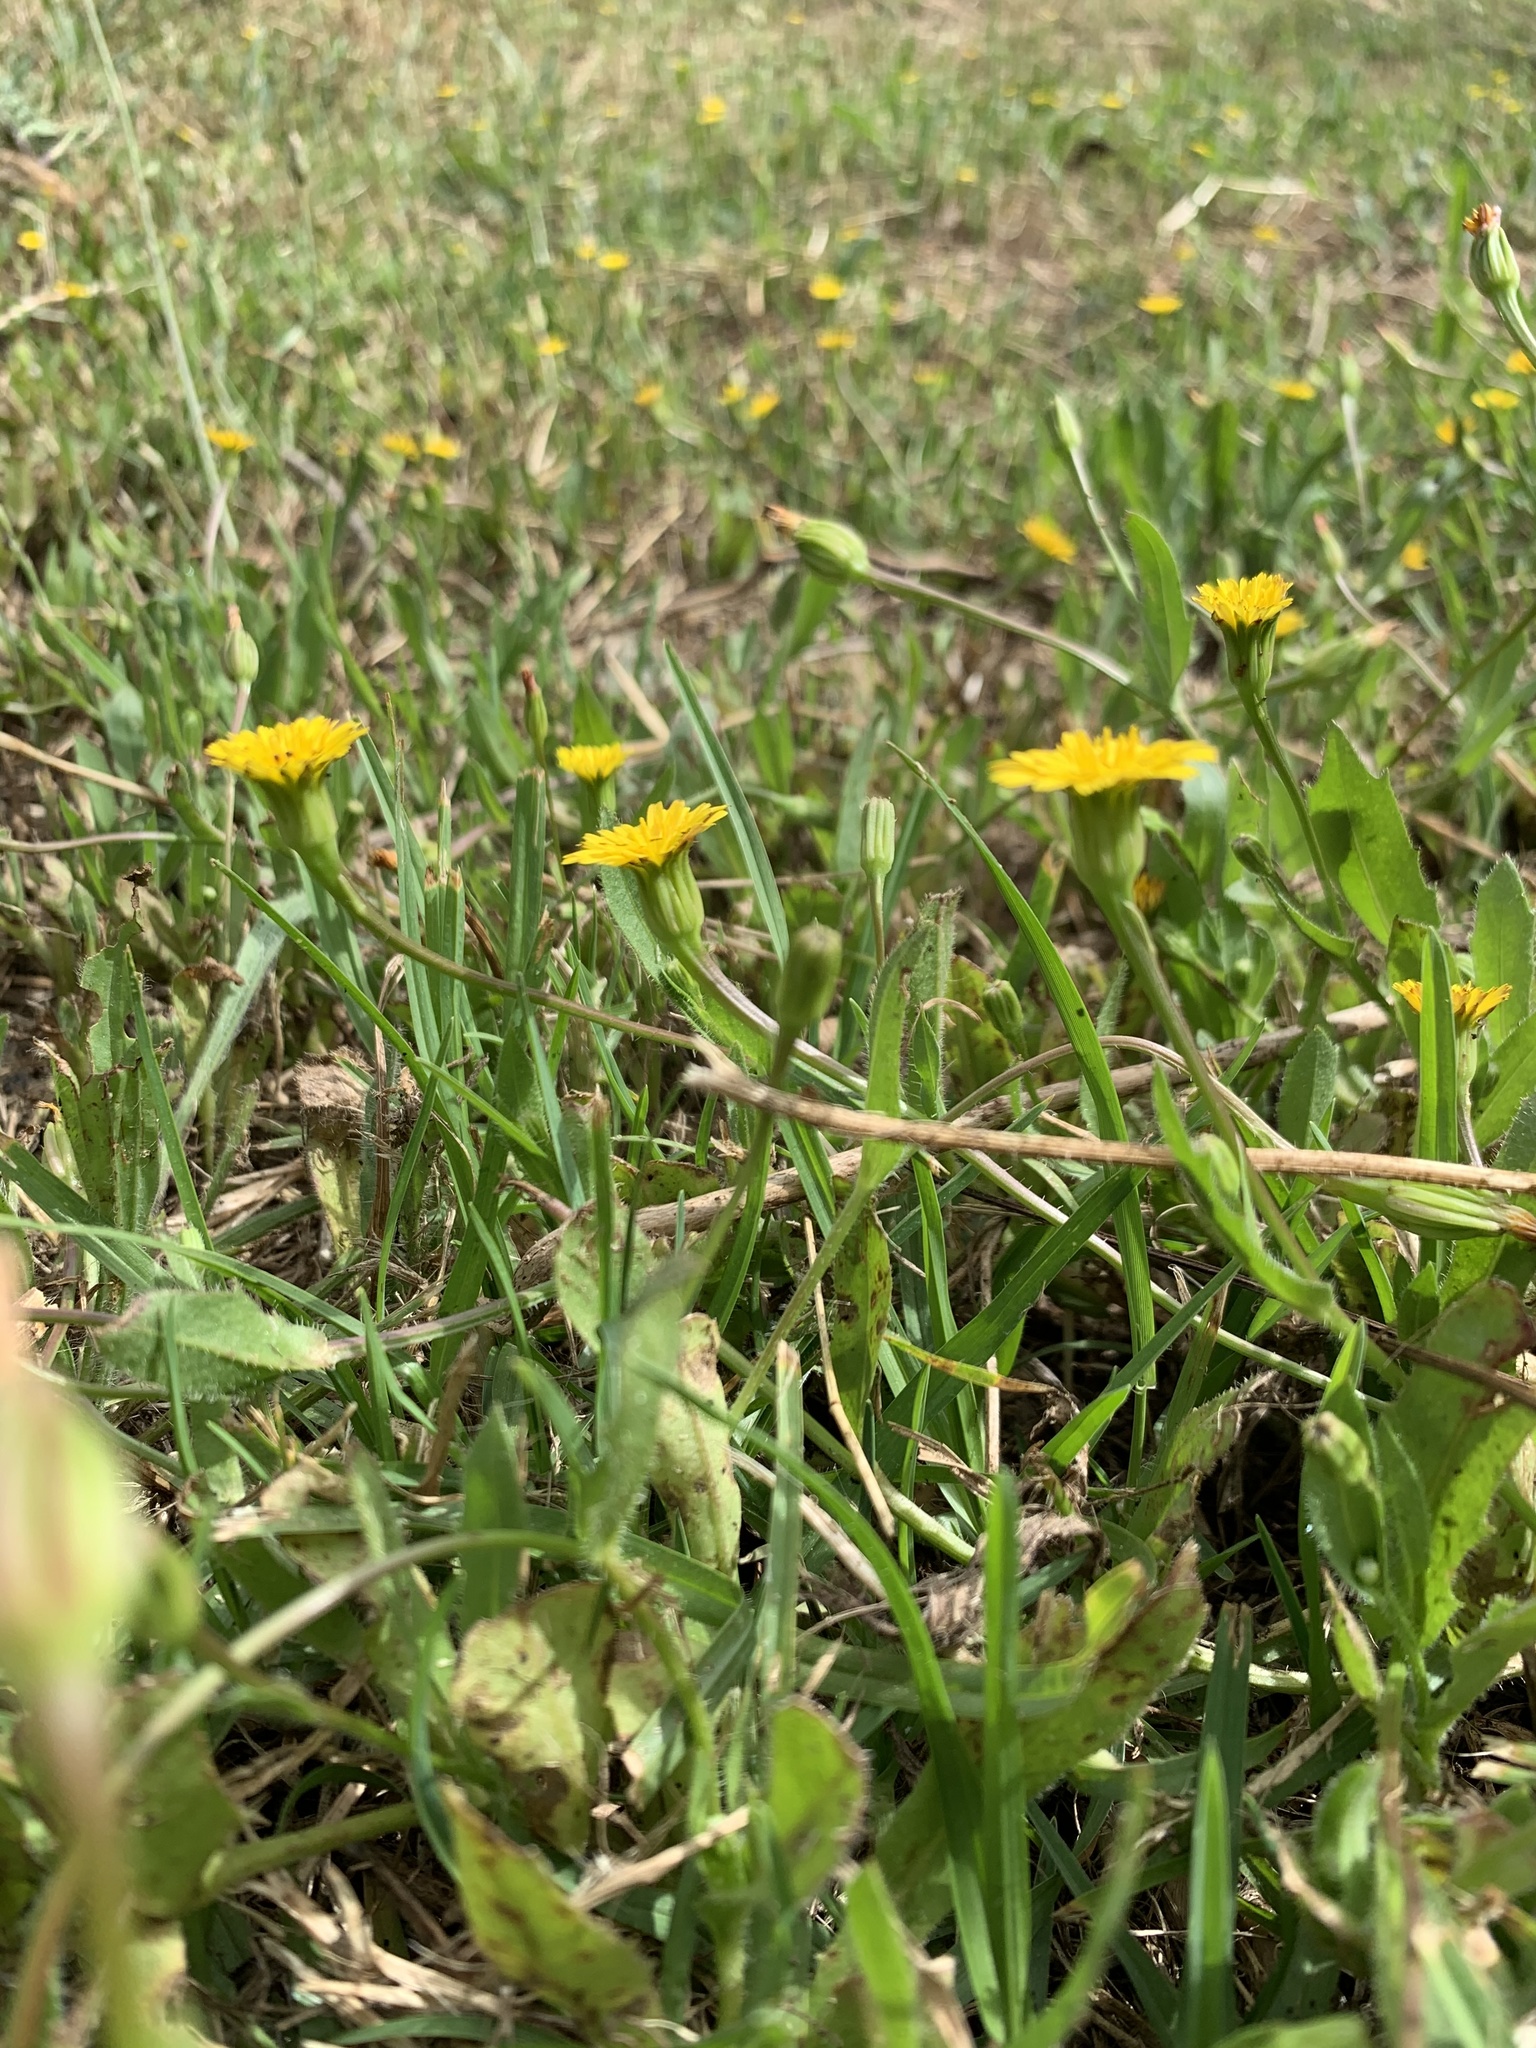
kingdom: Plantae
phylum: Tracheophyta
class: Magnoliopsida
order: Asterales
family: Asteraceae
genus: Hedypnois
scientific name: Hedypnois rhagadioloides
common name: Cretan weed
